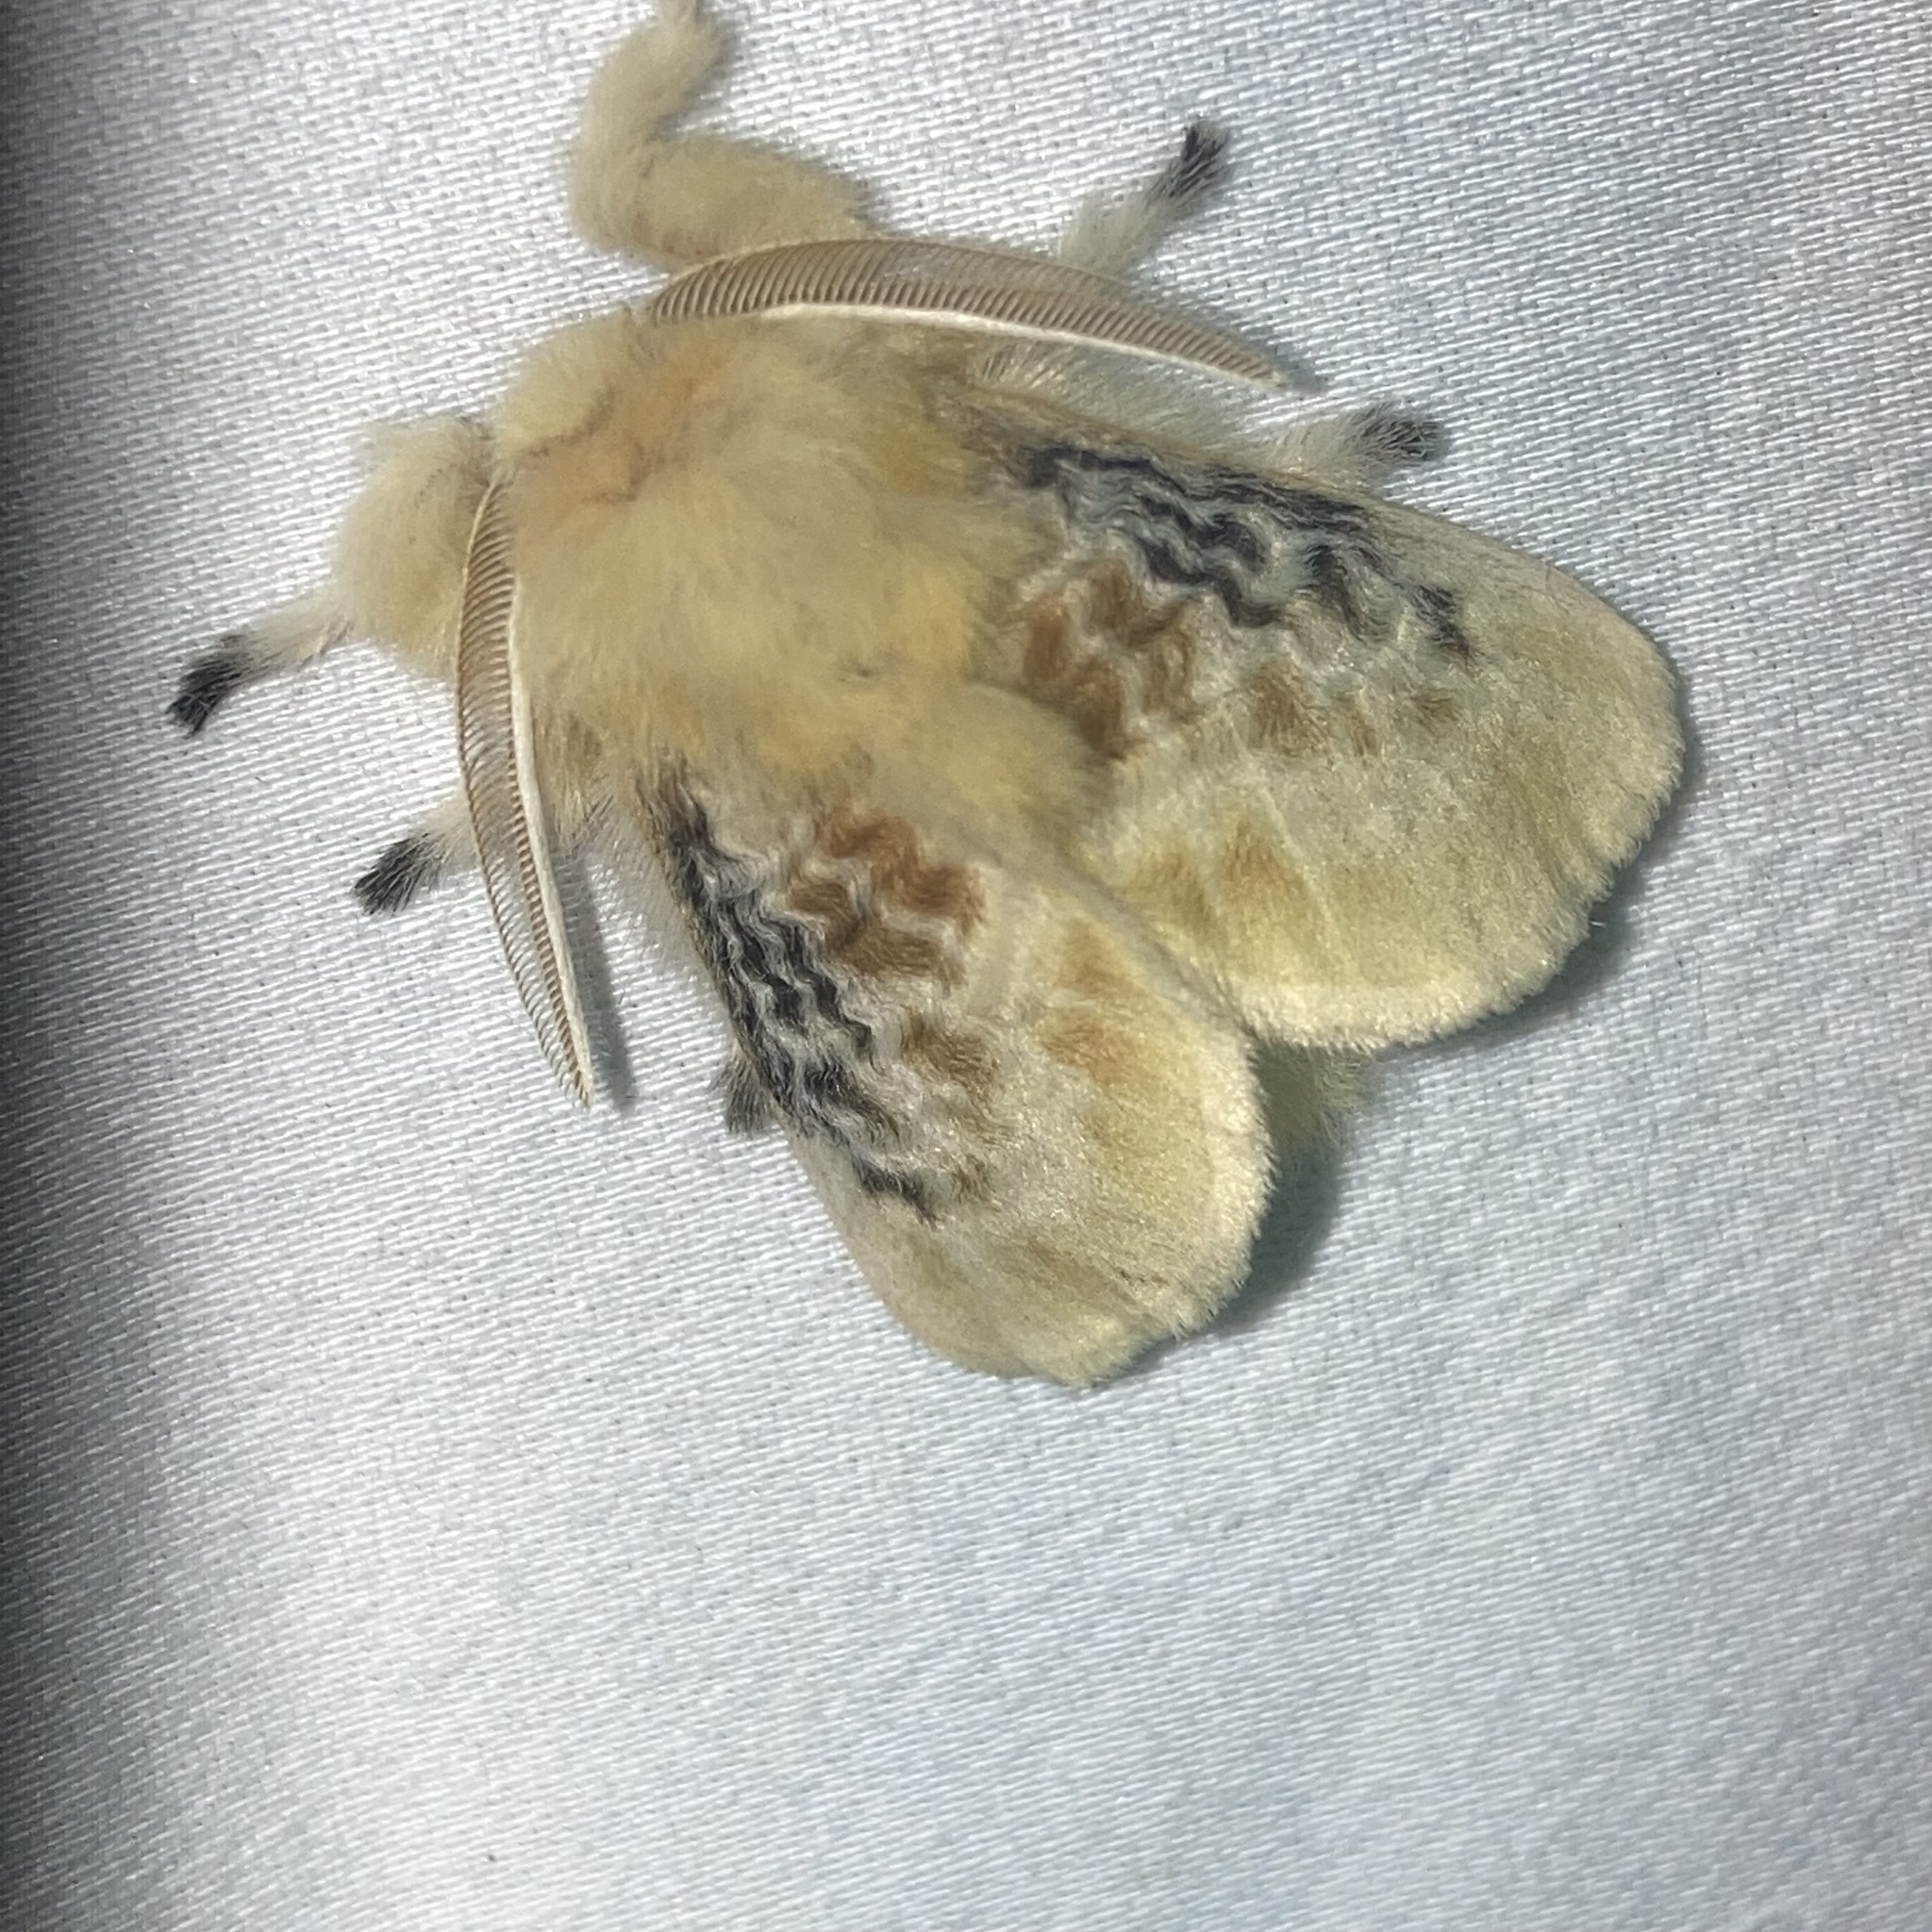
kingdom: Animalia
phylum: Arthropoda
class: Insecta
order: Lepidoptera
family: Megalopygidae
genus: Megalopyge
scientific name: Megalopyge crispata
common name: Black-waved flannel moth
